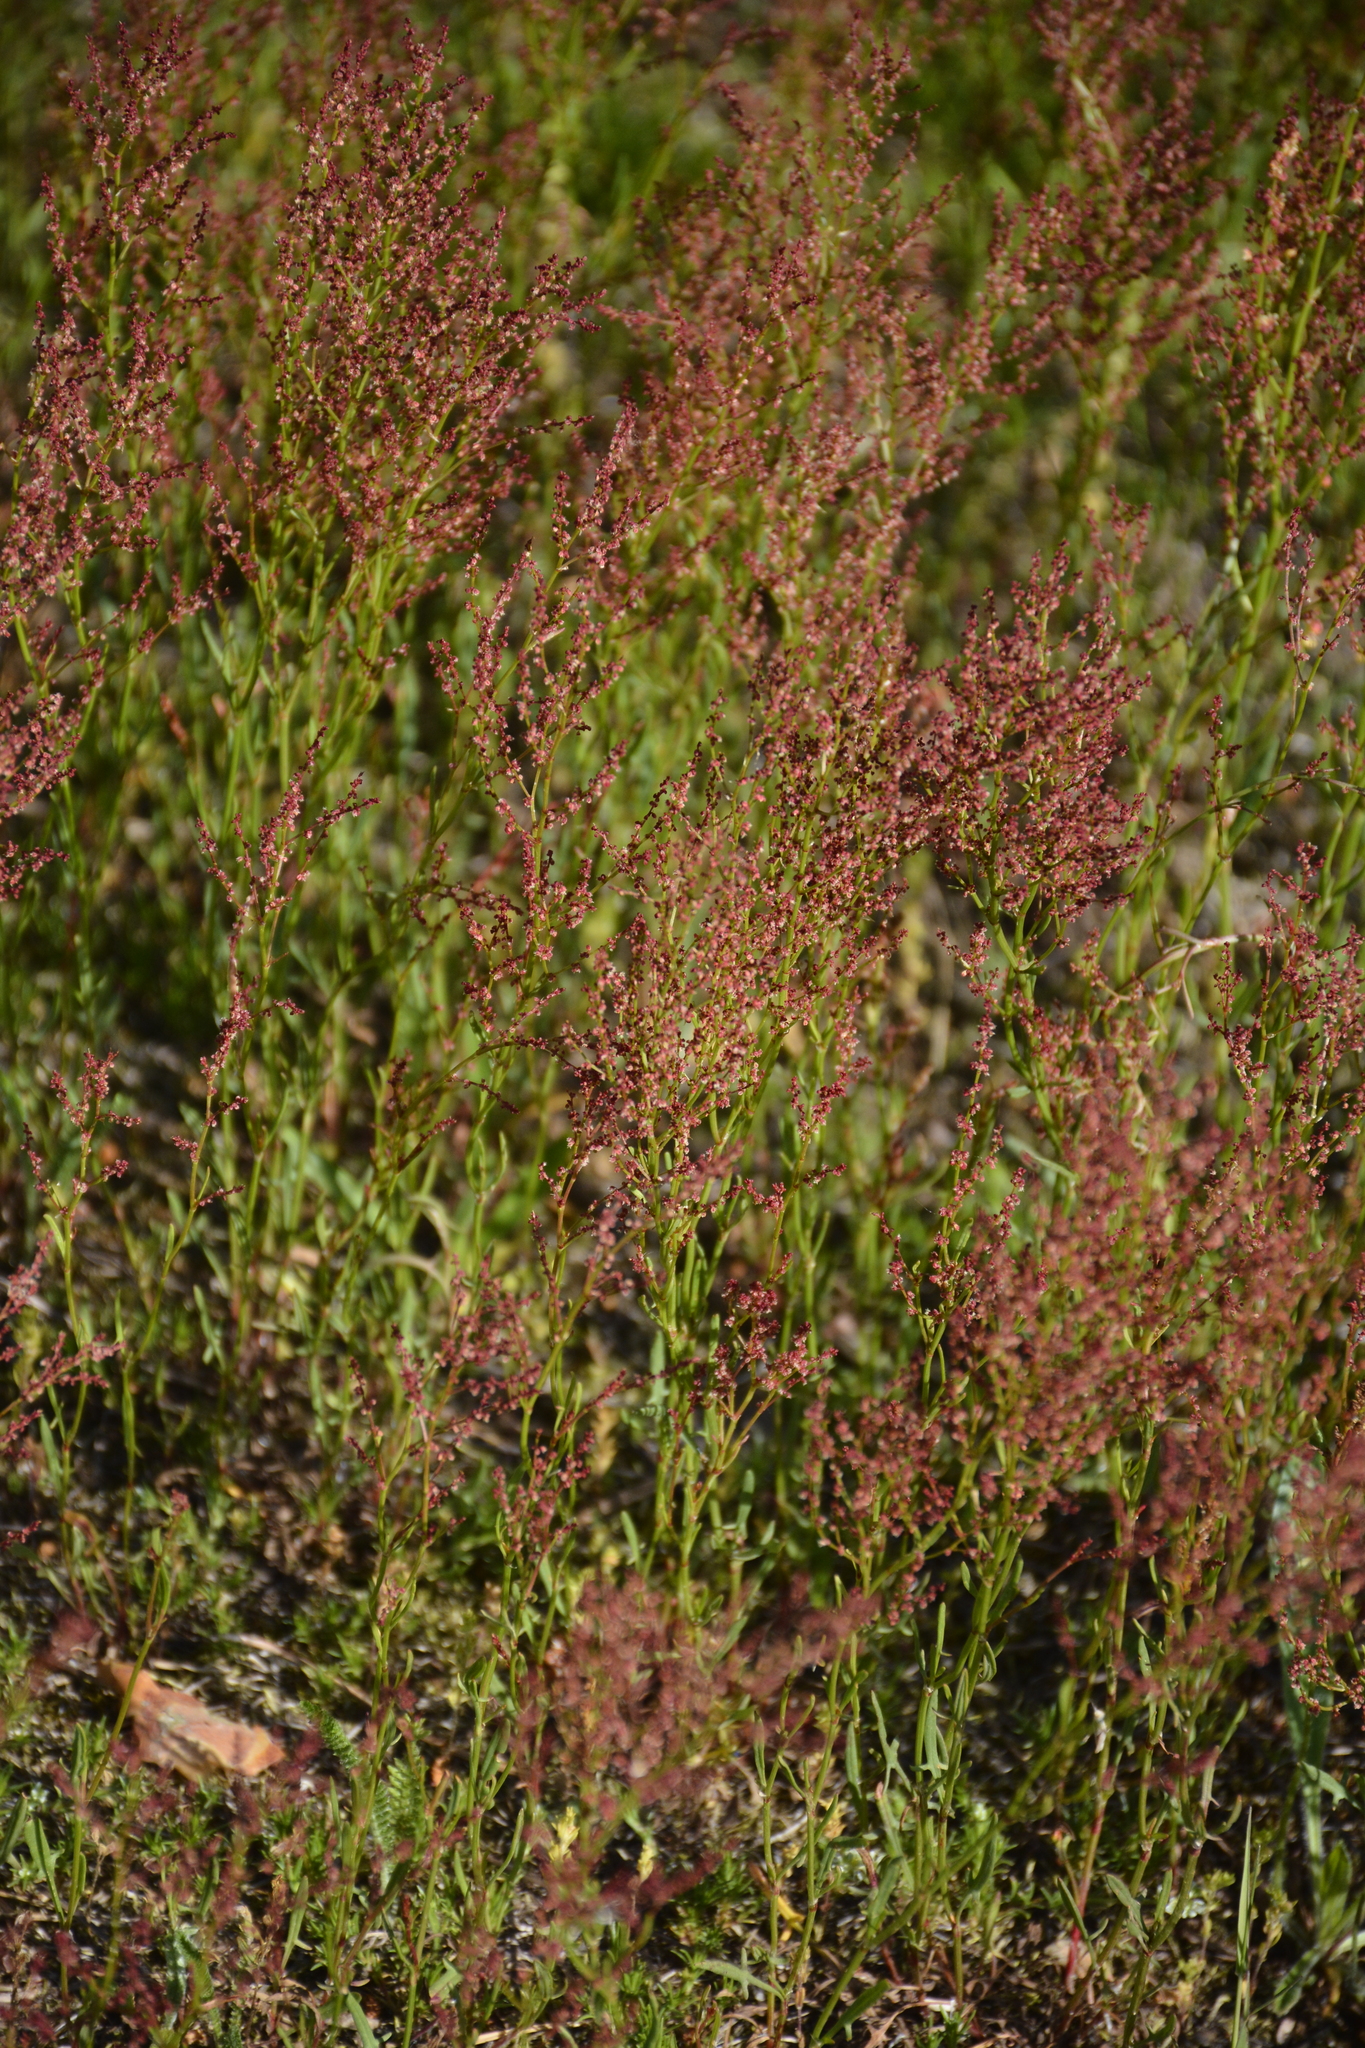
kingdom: Plantae
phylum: Tracheophyta
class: Magnoliopsida
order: Caryophyllales
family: Polygonaceae
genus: Rumex
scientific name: Rumex acetosella
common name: Common sheep sorrel
